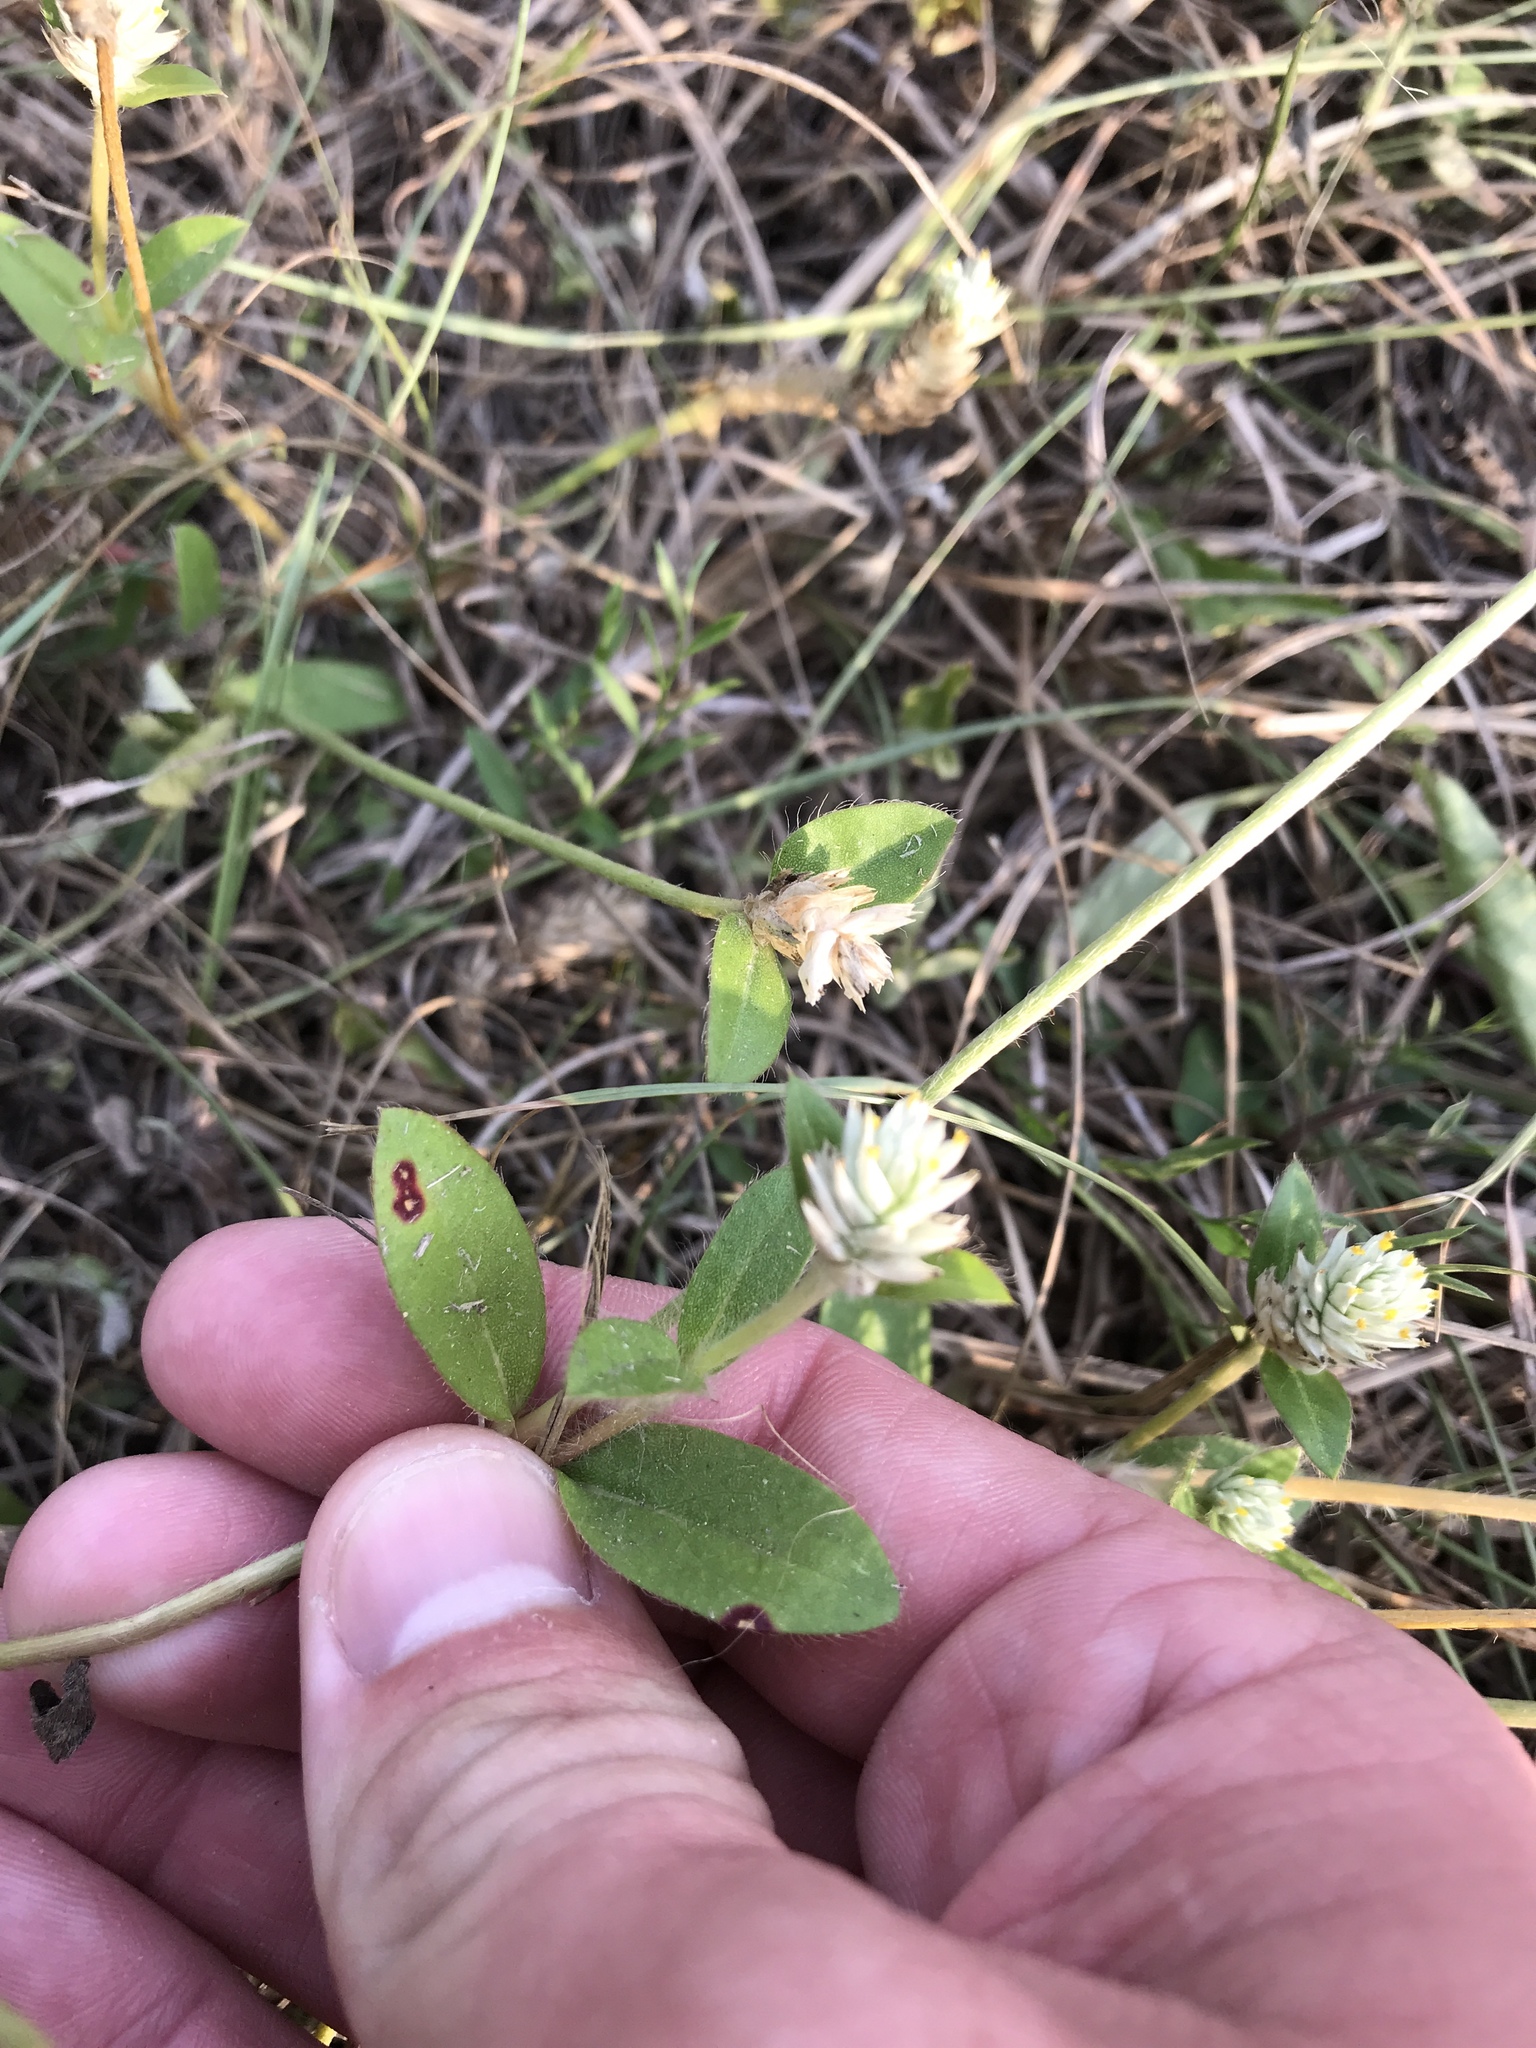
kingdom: Plantae
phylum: Tracheophyta
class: Magnoliopsida
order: Caryophyllales
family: Amaranthaceae
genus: Gomphrena
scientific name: Gomphrena serrata
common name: Arrasa con todo
